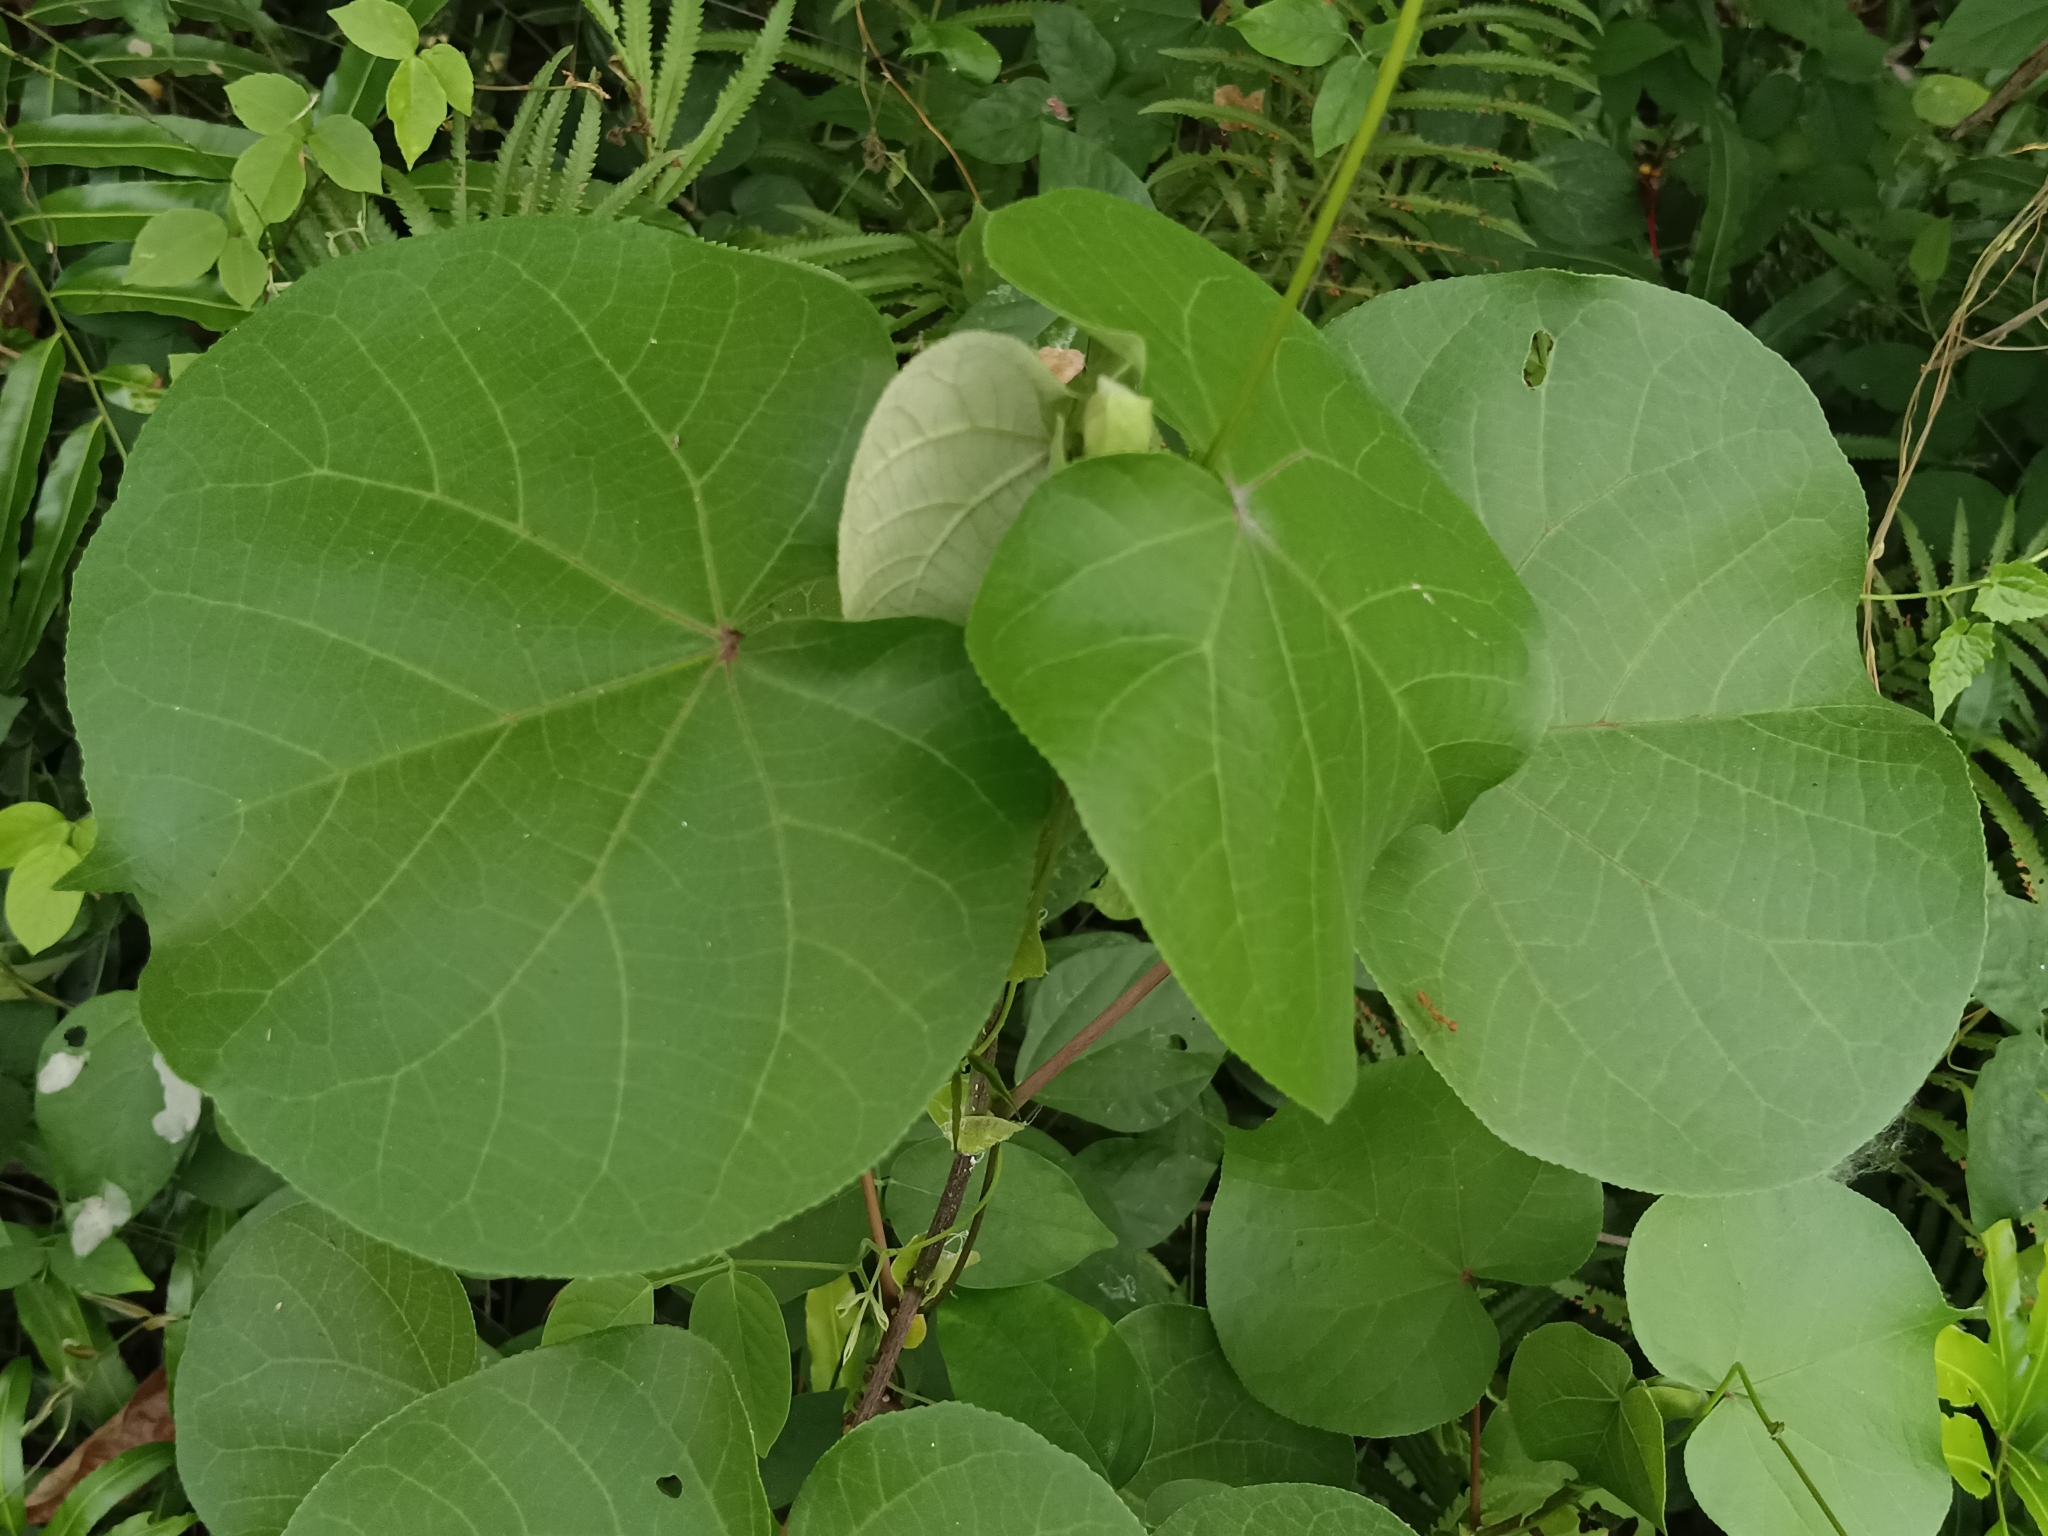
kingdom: Plantae
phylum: Tracheophyta
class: Magnoliopsida
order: Malvales
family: Malvaceae
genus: Talipariti
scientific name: Talipariti tiliaceum
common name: Sea hibiscus
